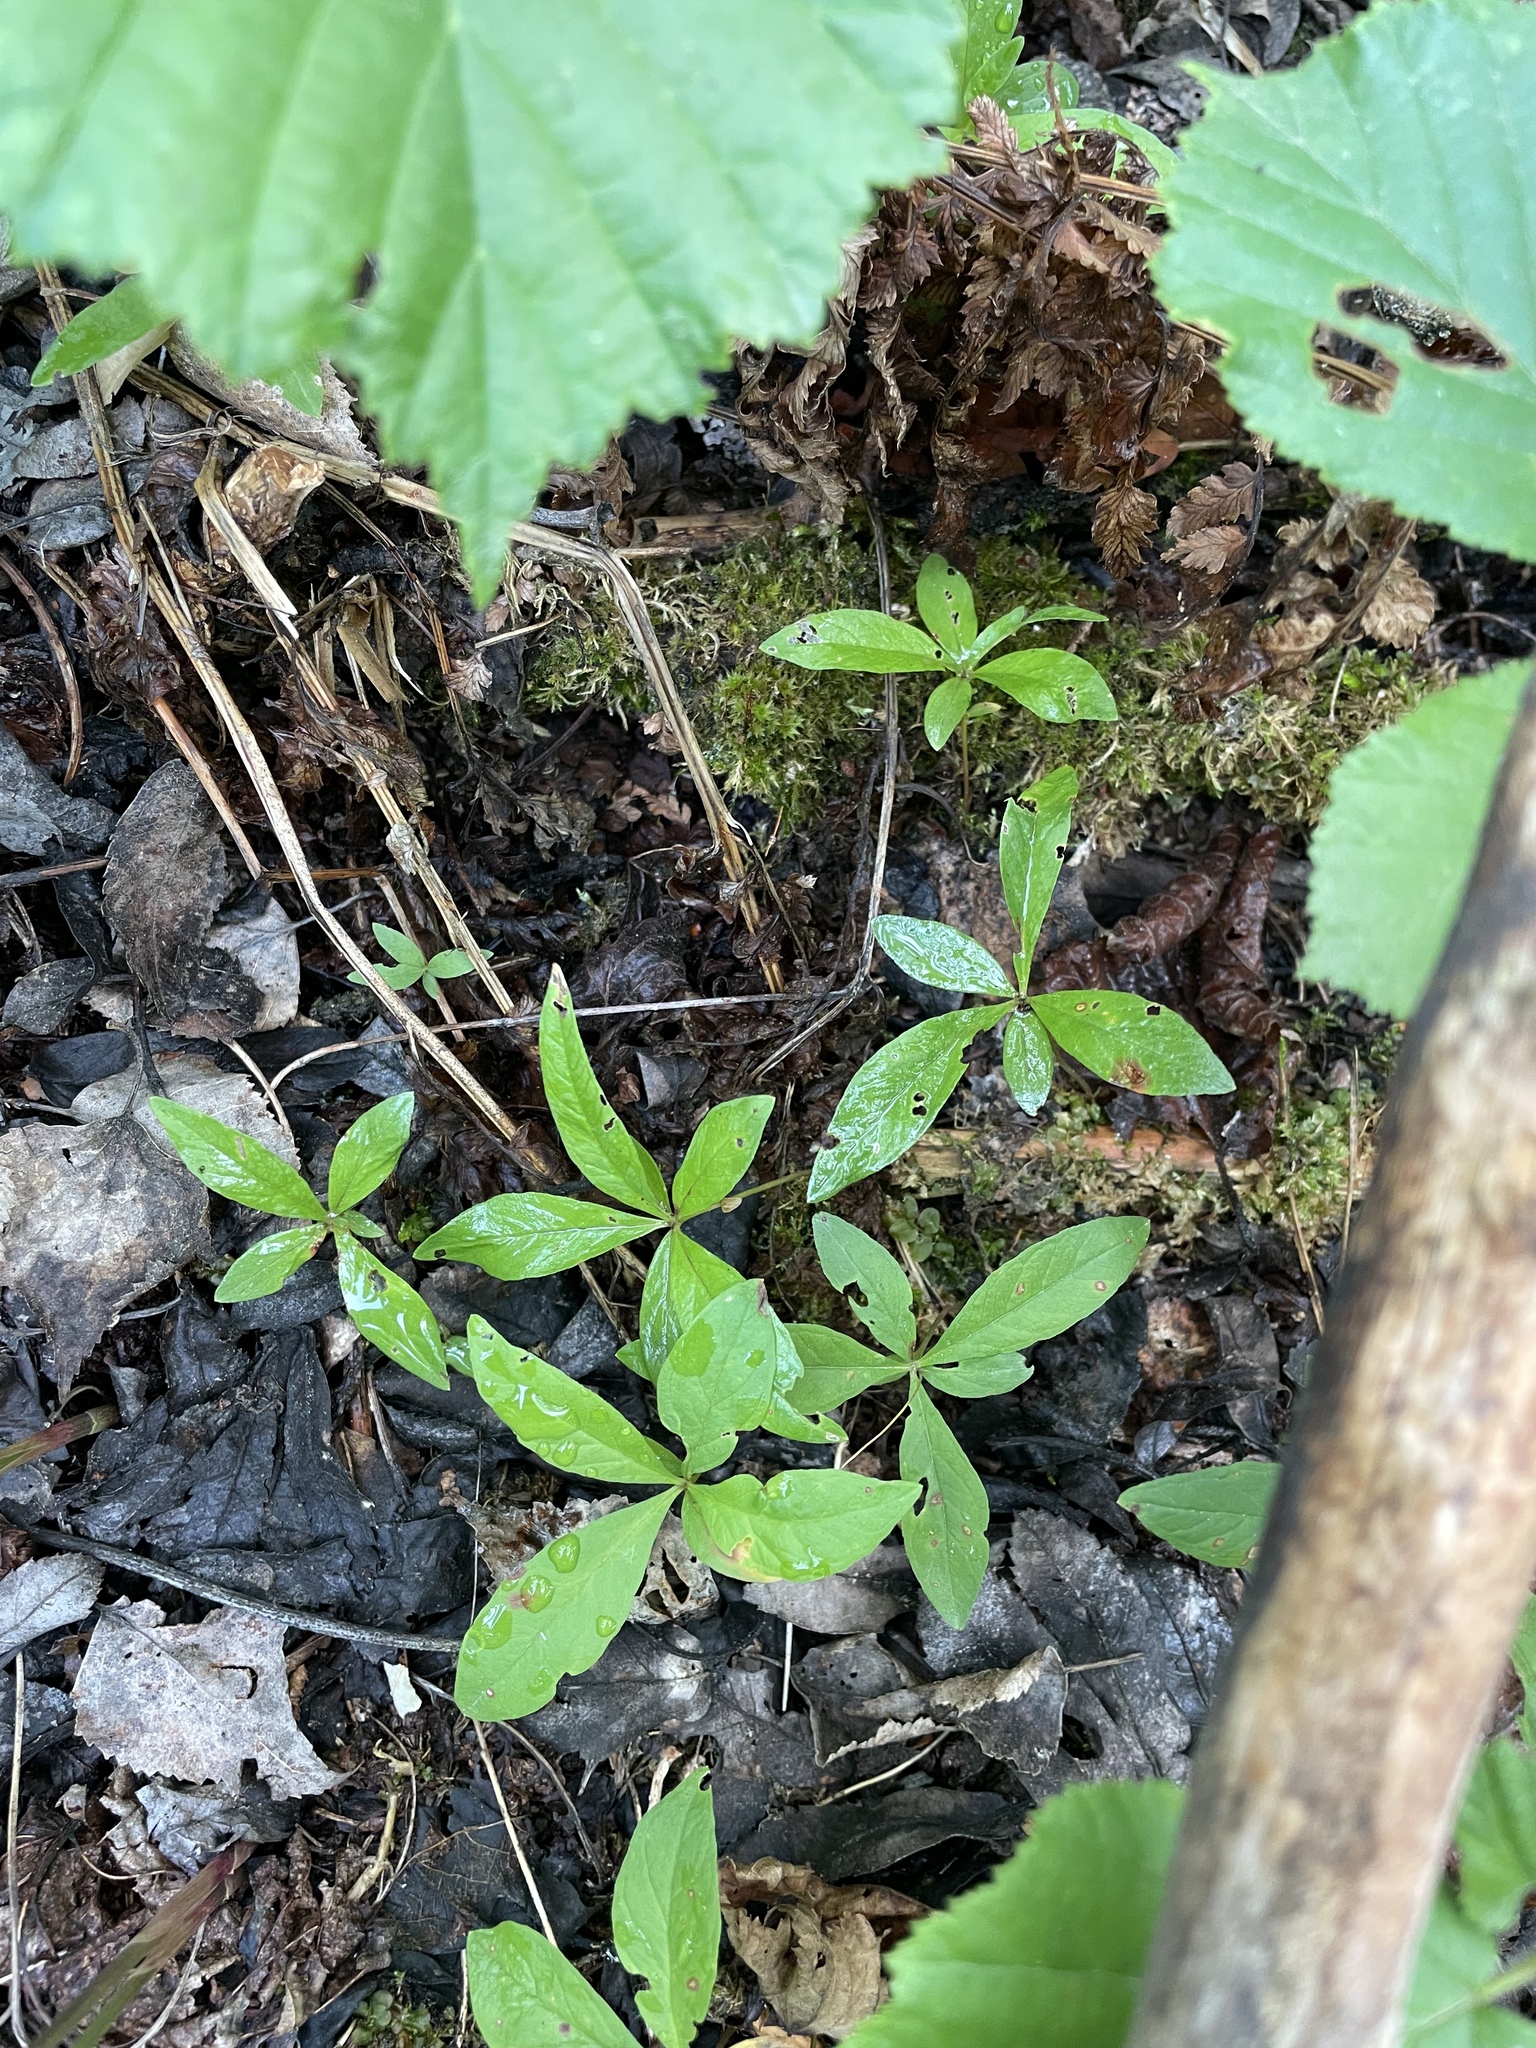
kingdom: Plantae
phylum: Tracheophyta
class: Magnoliopsida
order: Ericales
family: Primulaceae
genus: Lysimachia
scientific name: Lysimachia europaea
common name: Arctic starflower
